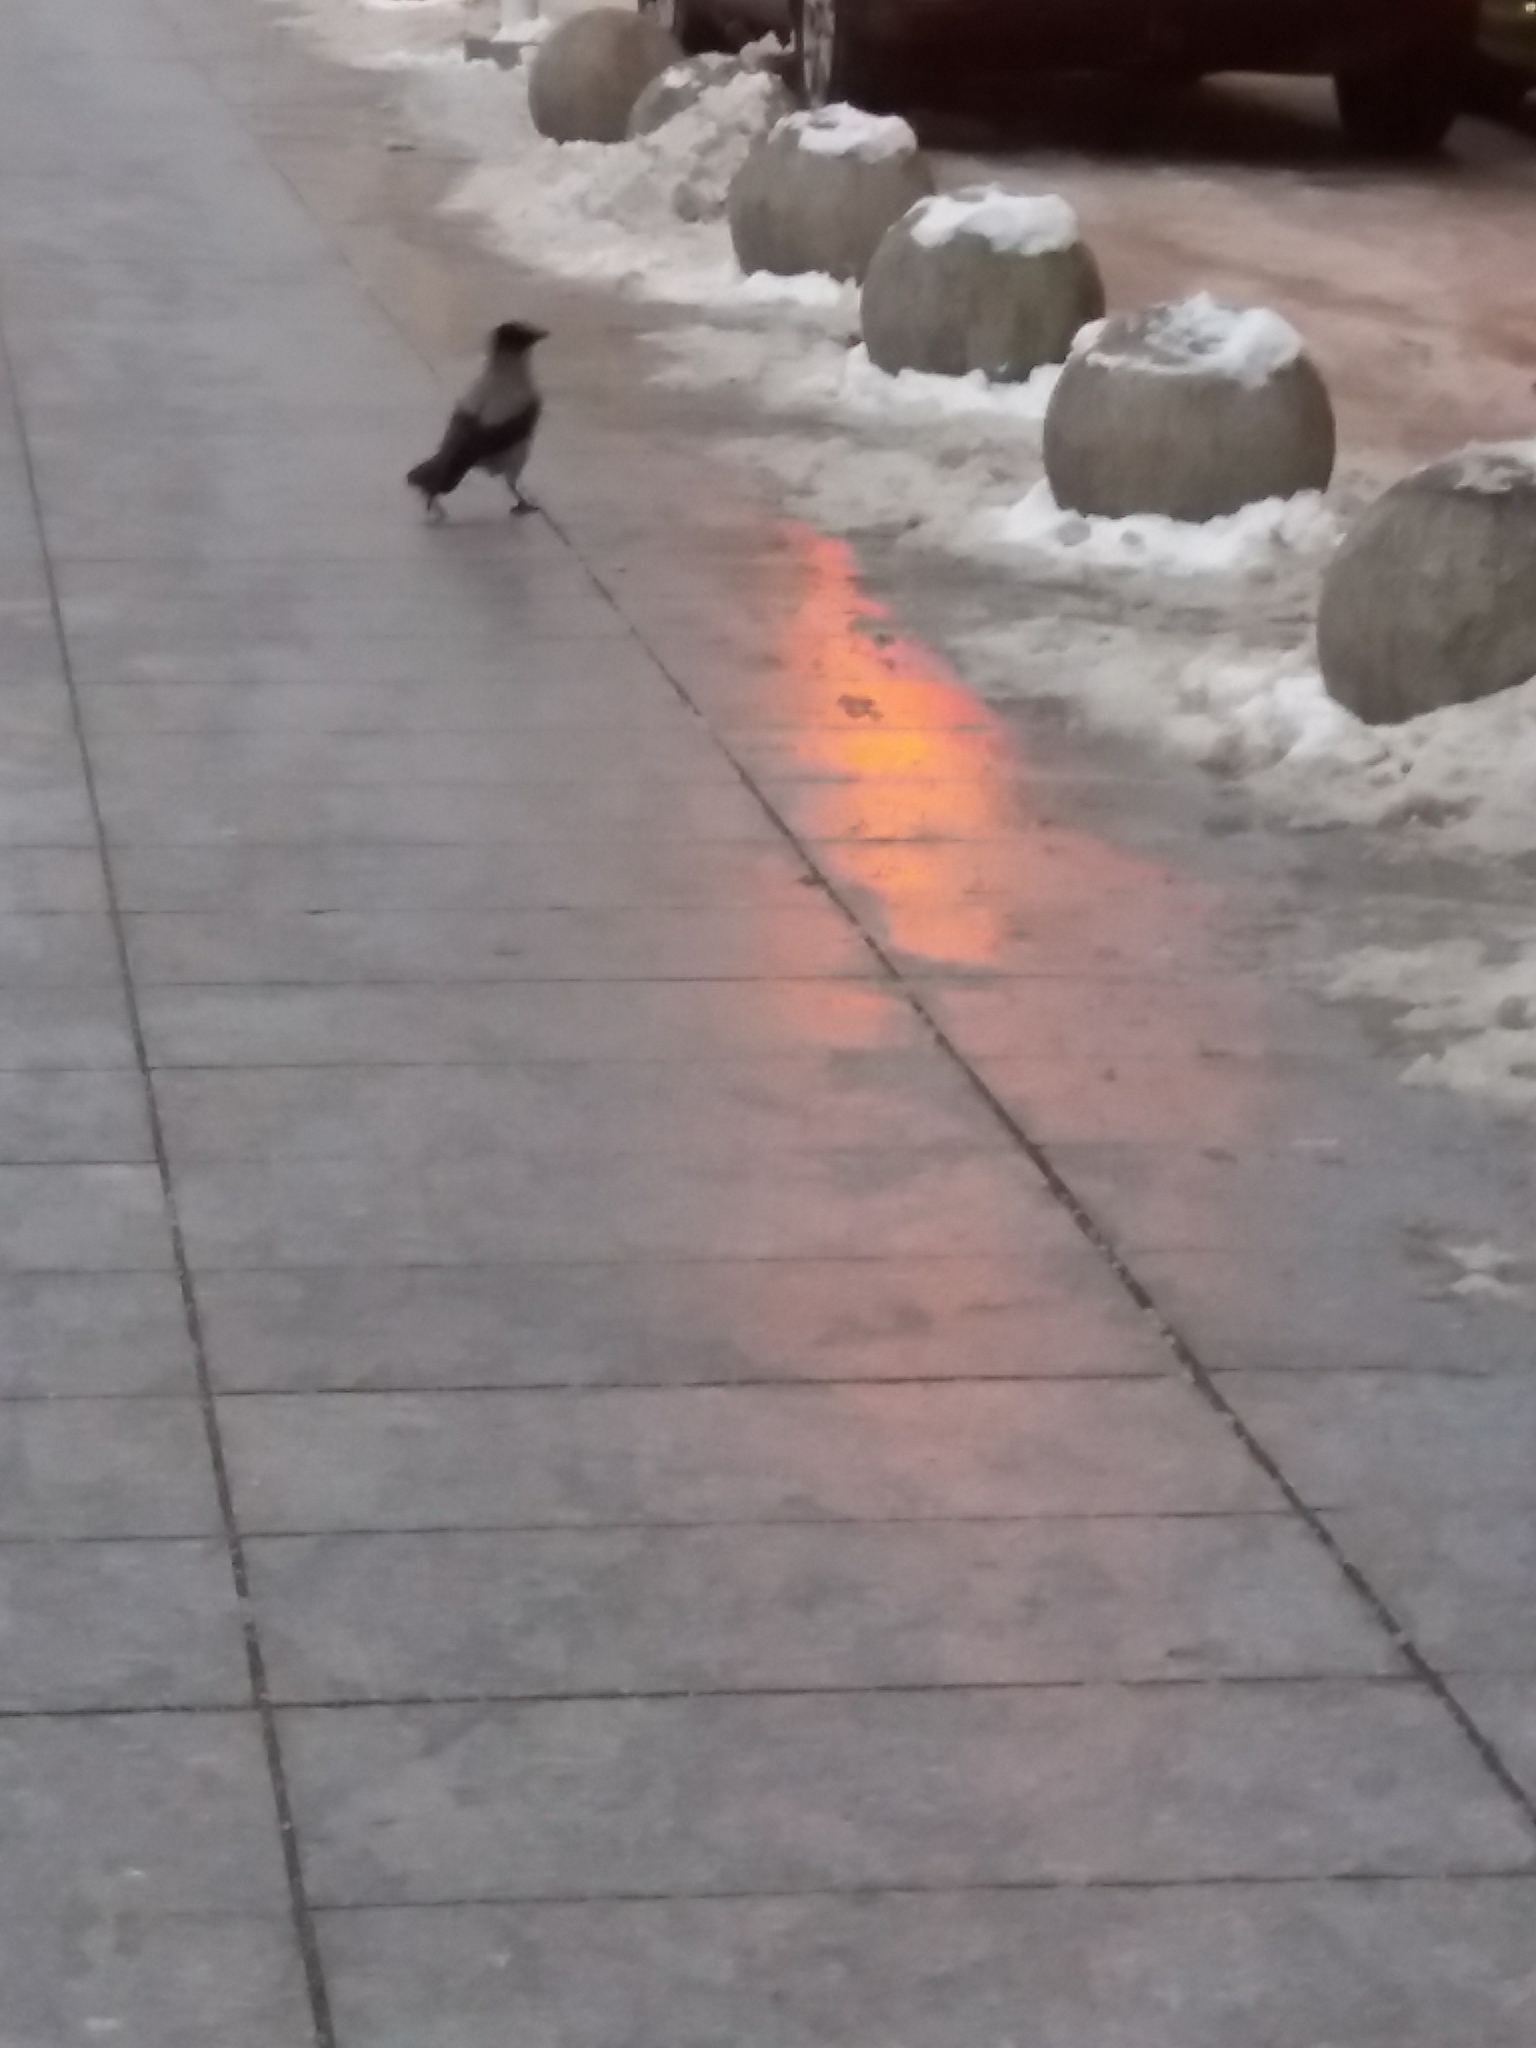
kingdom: Animalia
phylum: Chordata
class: Aves
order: Passeriformes
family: Corvidae
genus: Corvus
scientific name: Corvus cornix
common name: Hooded crow
